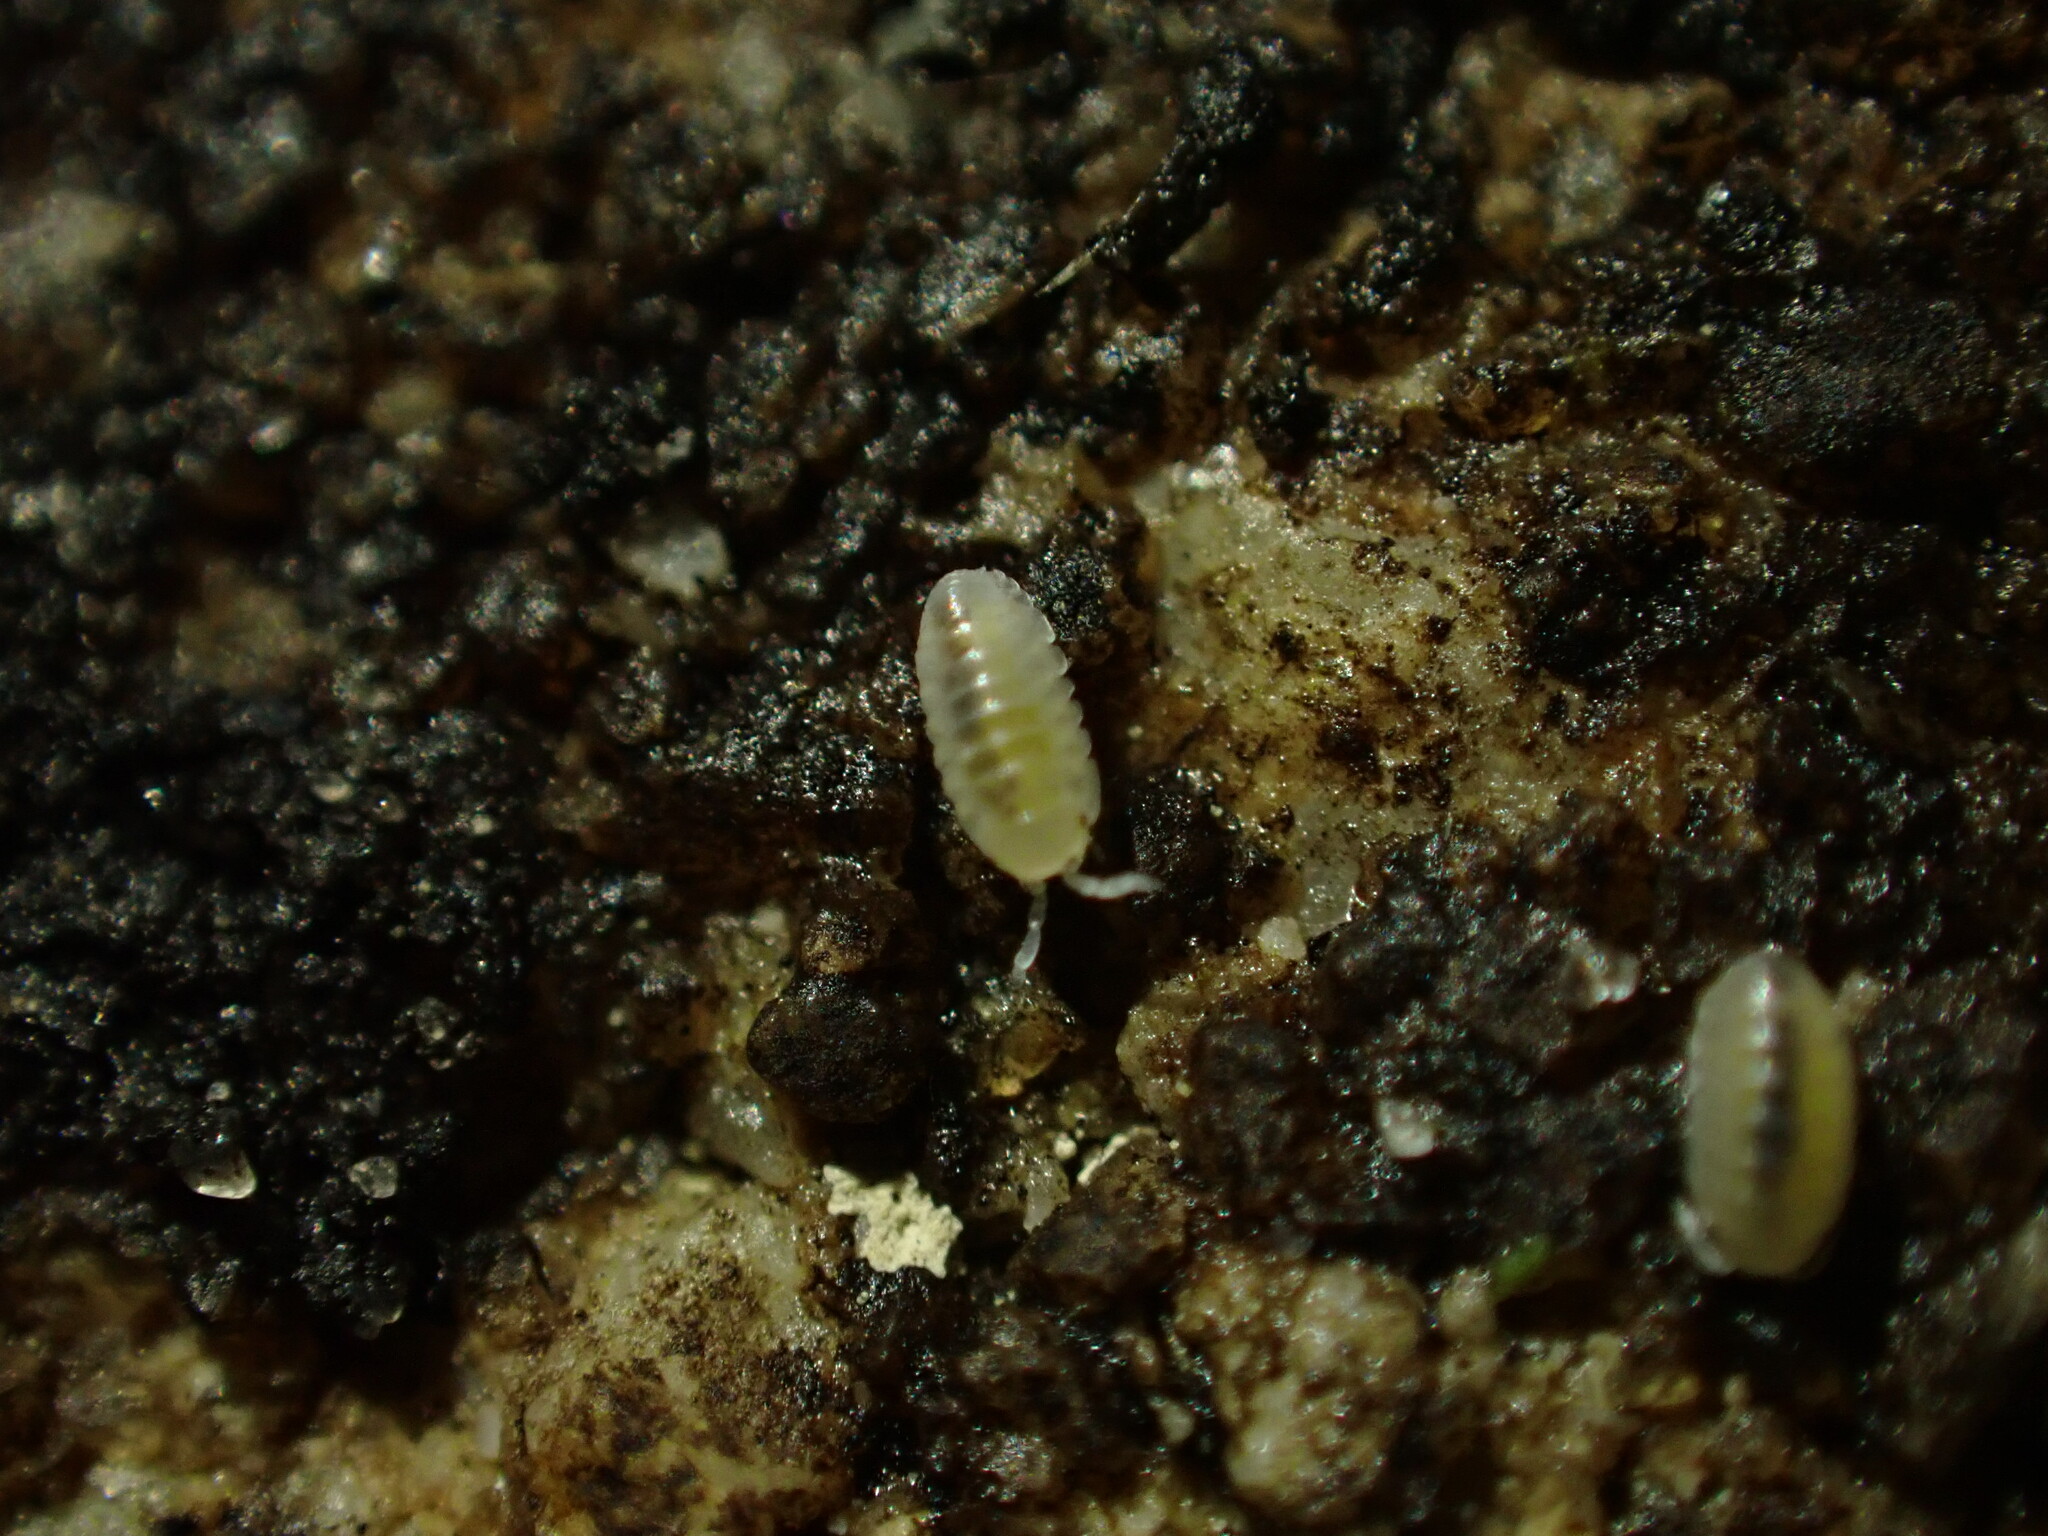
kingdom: Animalia
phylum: Arthropoda
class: Malacostraca
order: Isopoda
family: Armadillidiidae
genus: Armadillidium
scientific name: Armadillidium vulgare
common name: Common pill woodlouse
